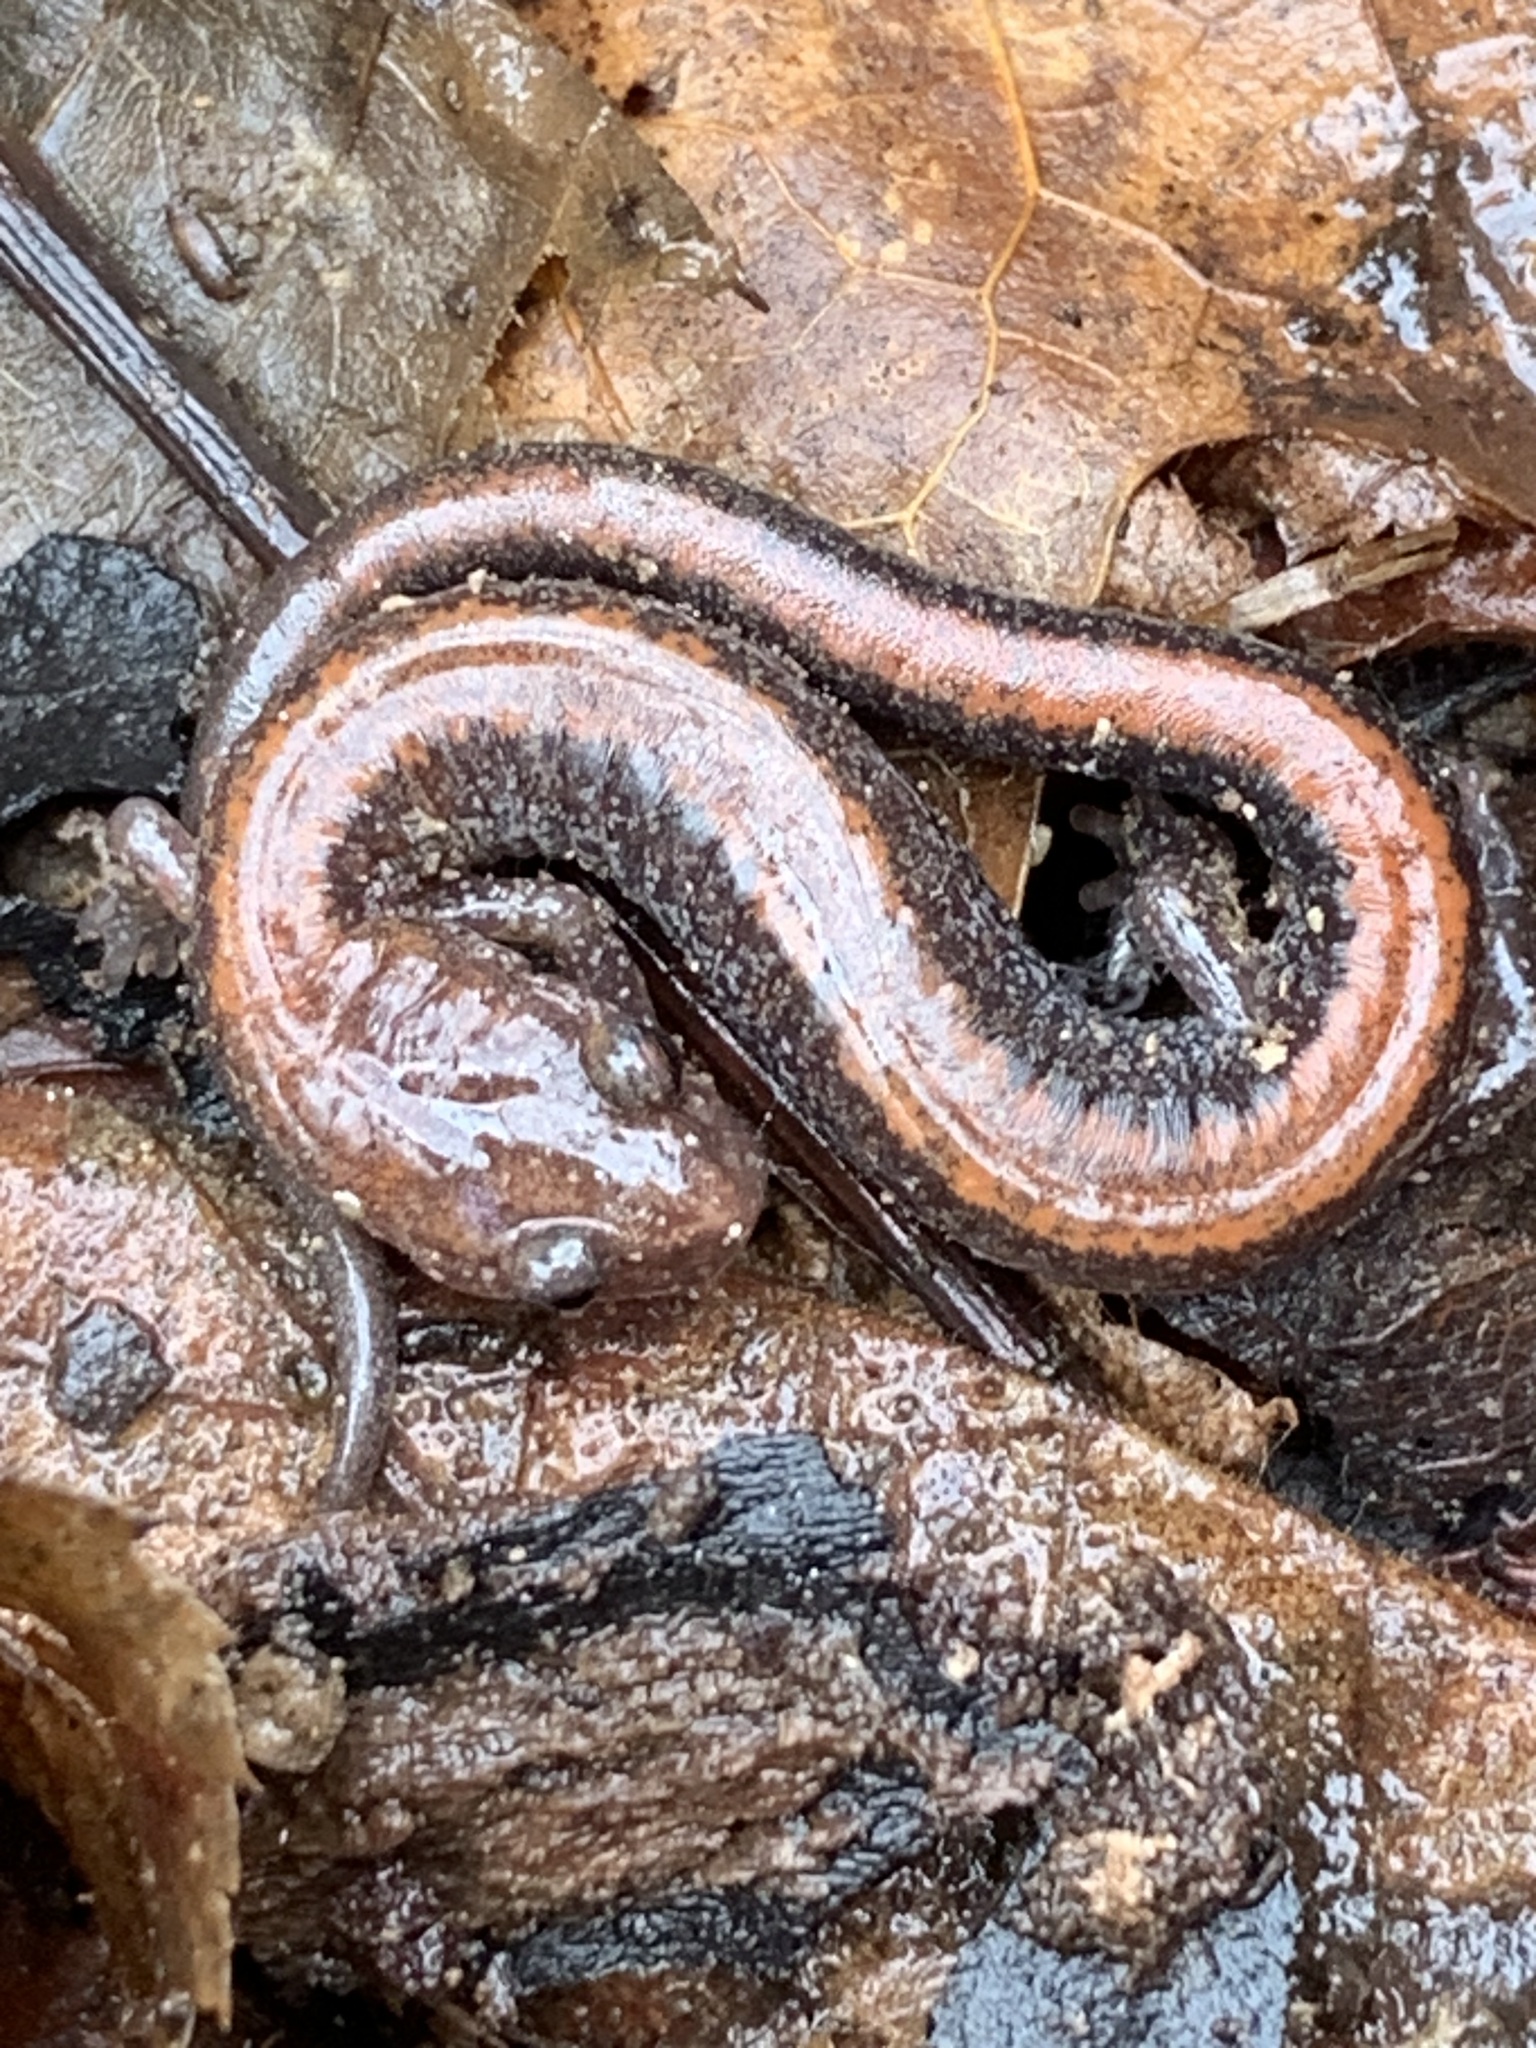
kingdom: Animalia
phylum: Chordata
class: Amphibia
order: Caudata
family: Plethodontidae
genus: Plethodon
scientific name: Plethodon cinereus
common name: Redback salamander
